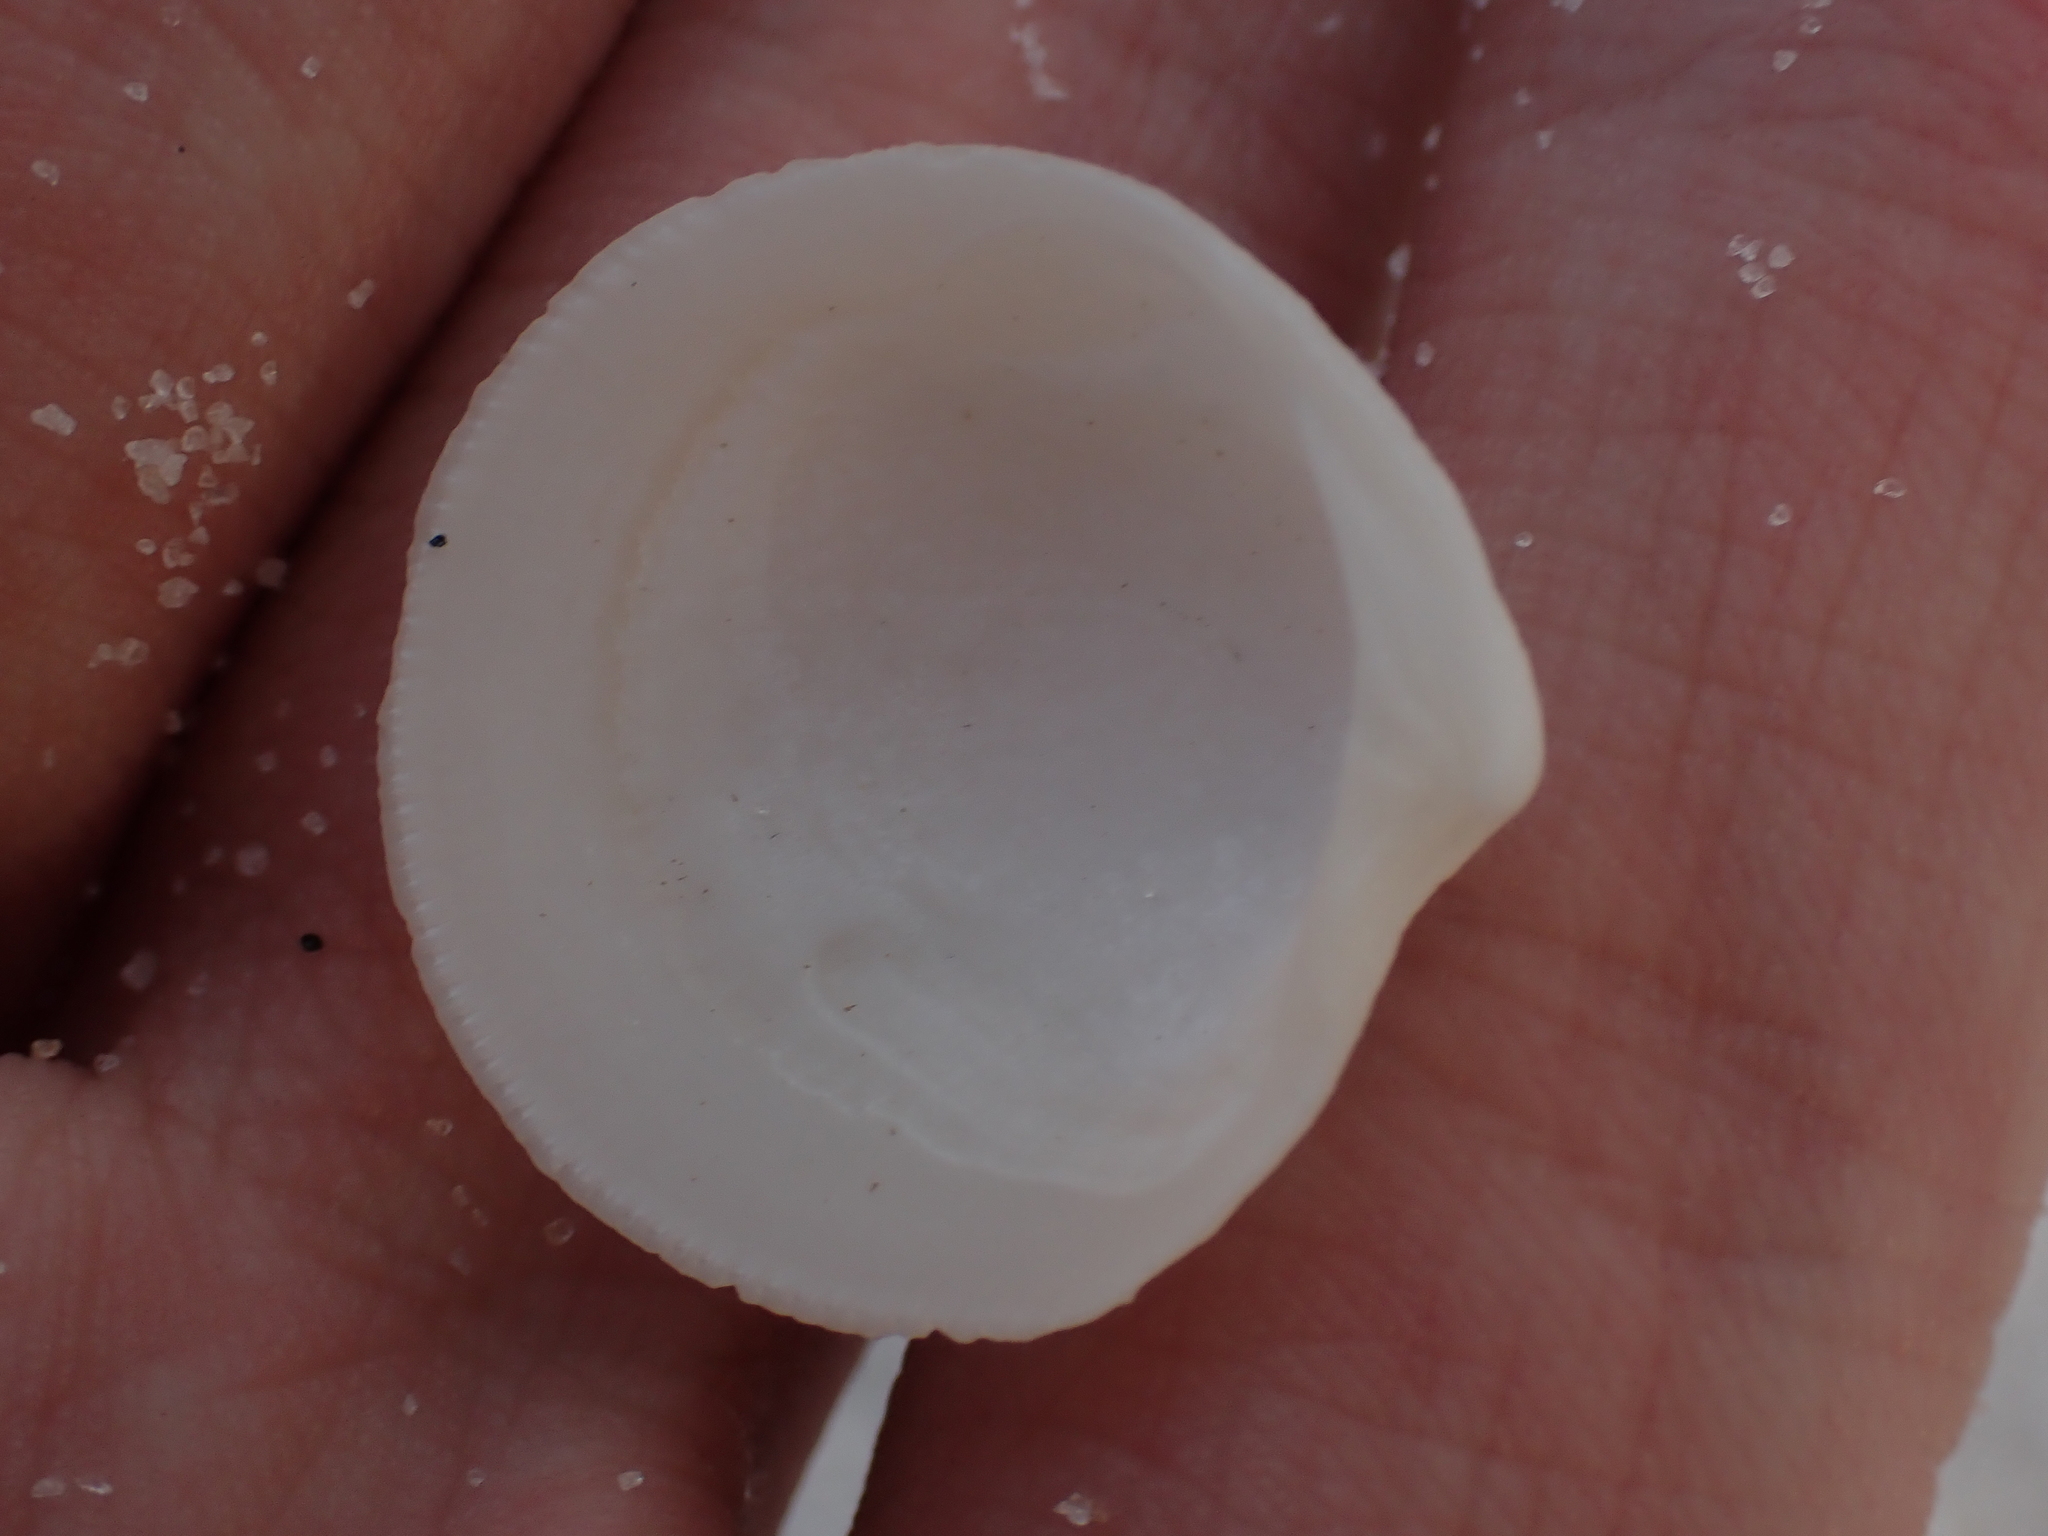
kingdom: Animalia
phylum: Mollusca
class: Bivalvia
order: Lucinida
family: Lucinidae
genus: Callucina
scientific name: Callucina keenae
